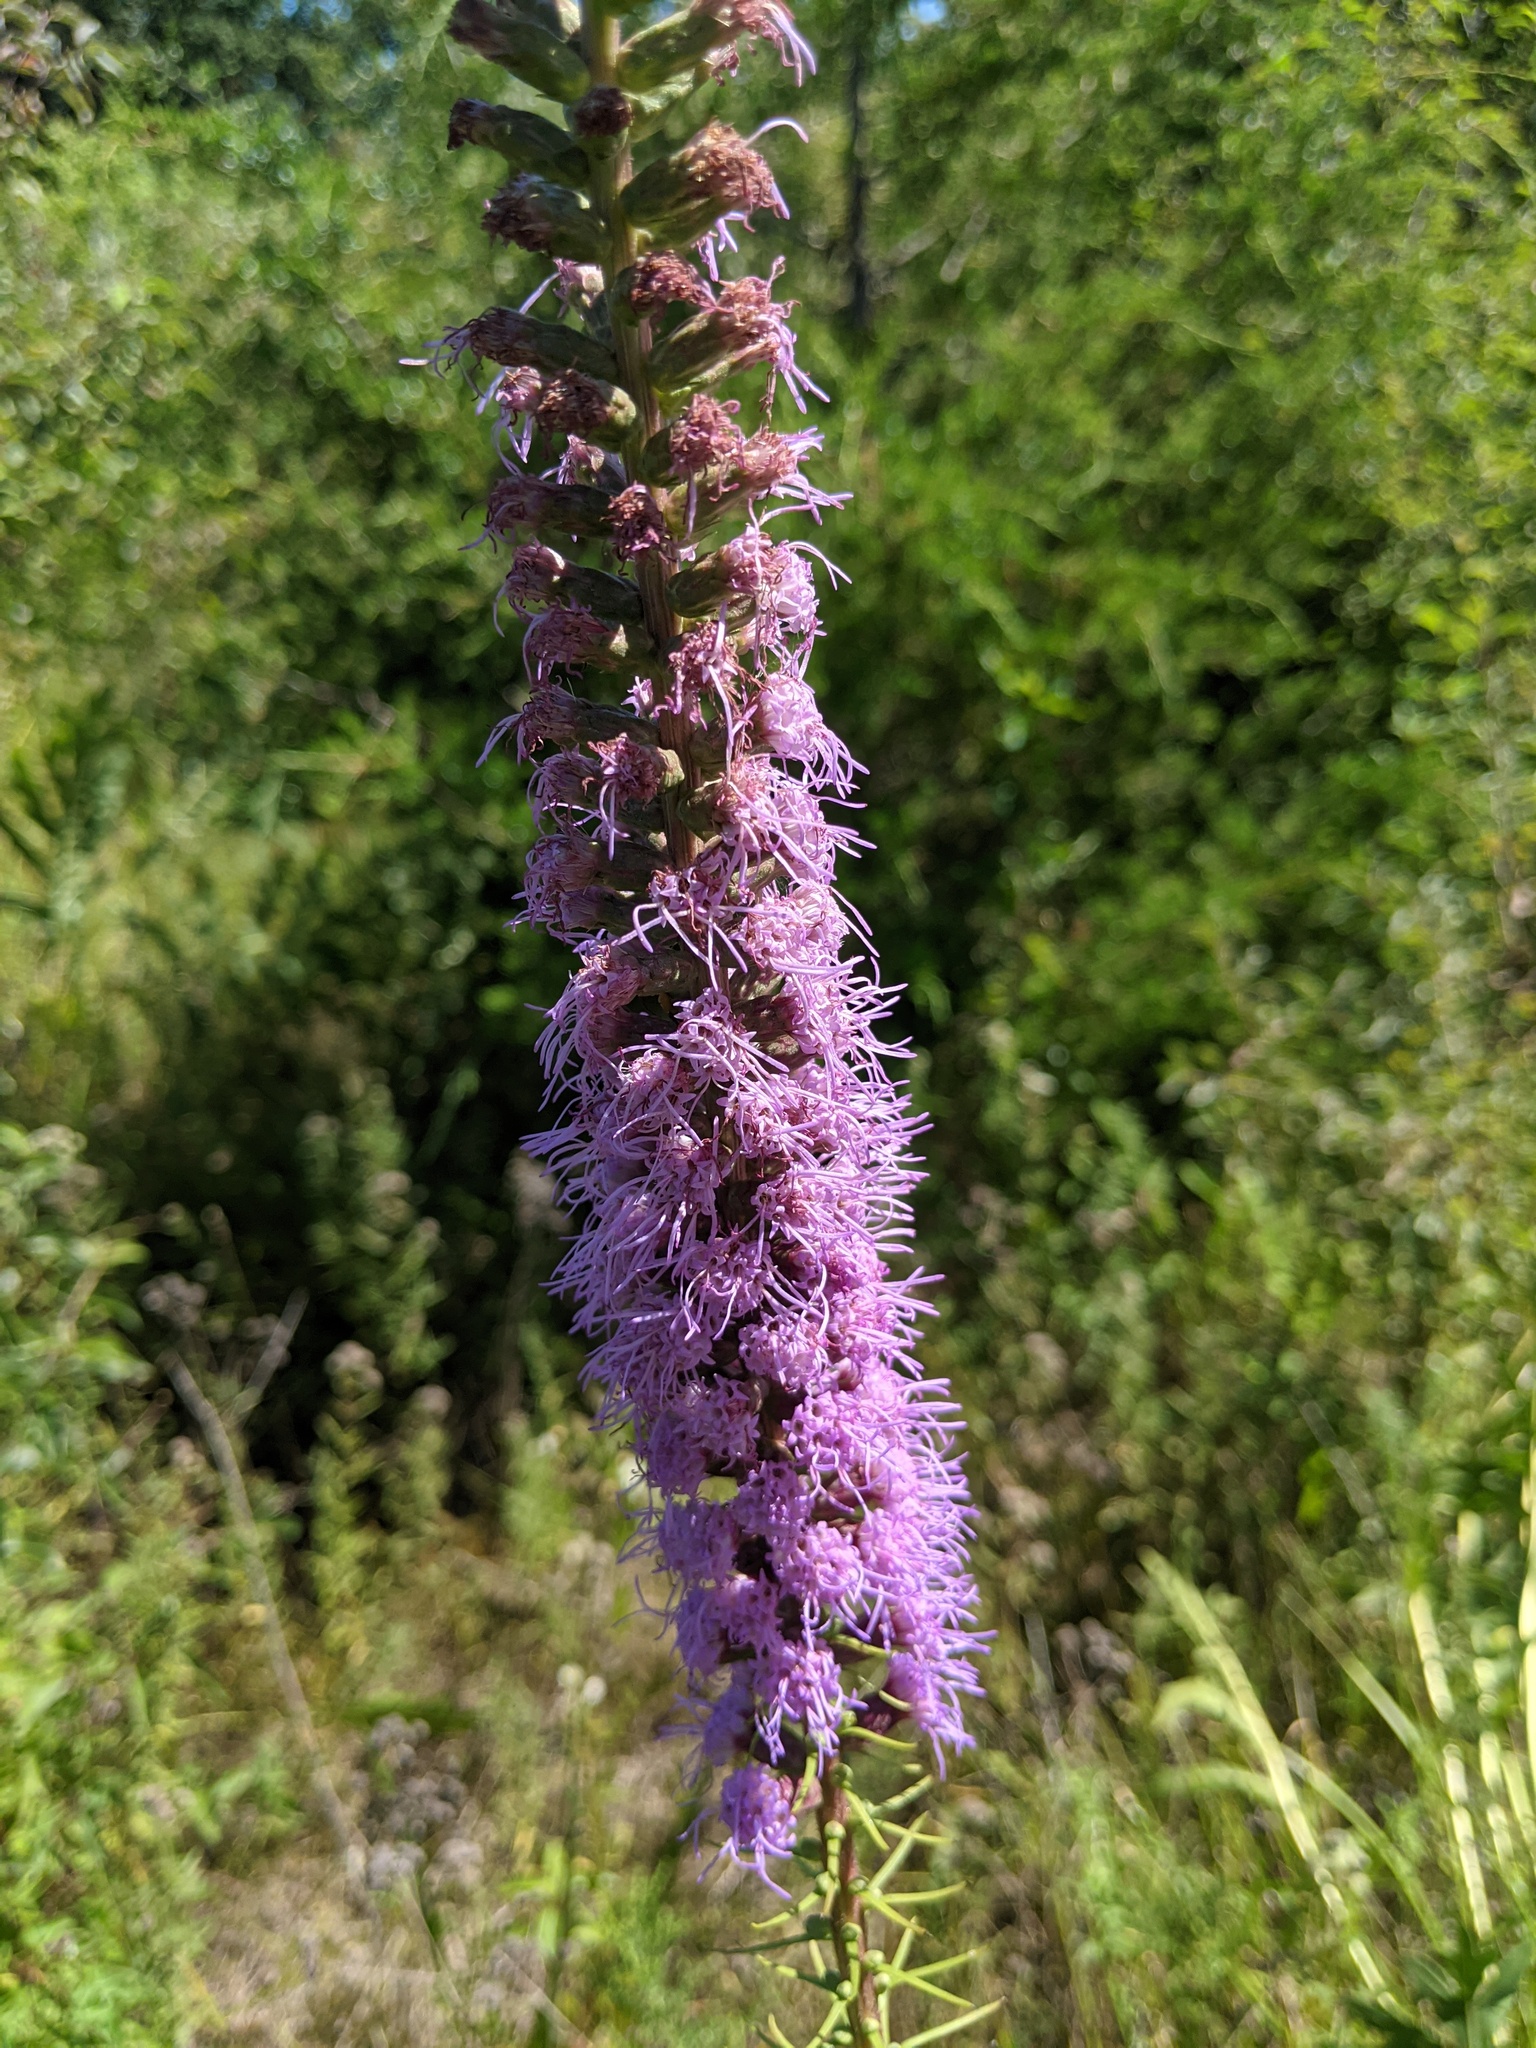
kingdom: Plantae
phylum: Tracheophyta
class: Magnoliopsida
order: Asterales
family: Asteraceae
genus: Liatris
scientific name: Liatris spicata
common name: Florist gayfeather
